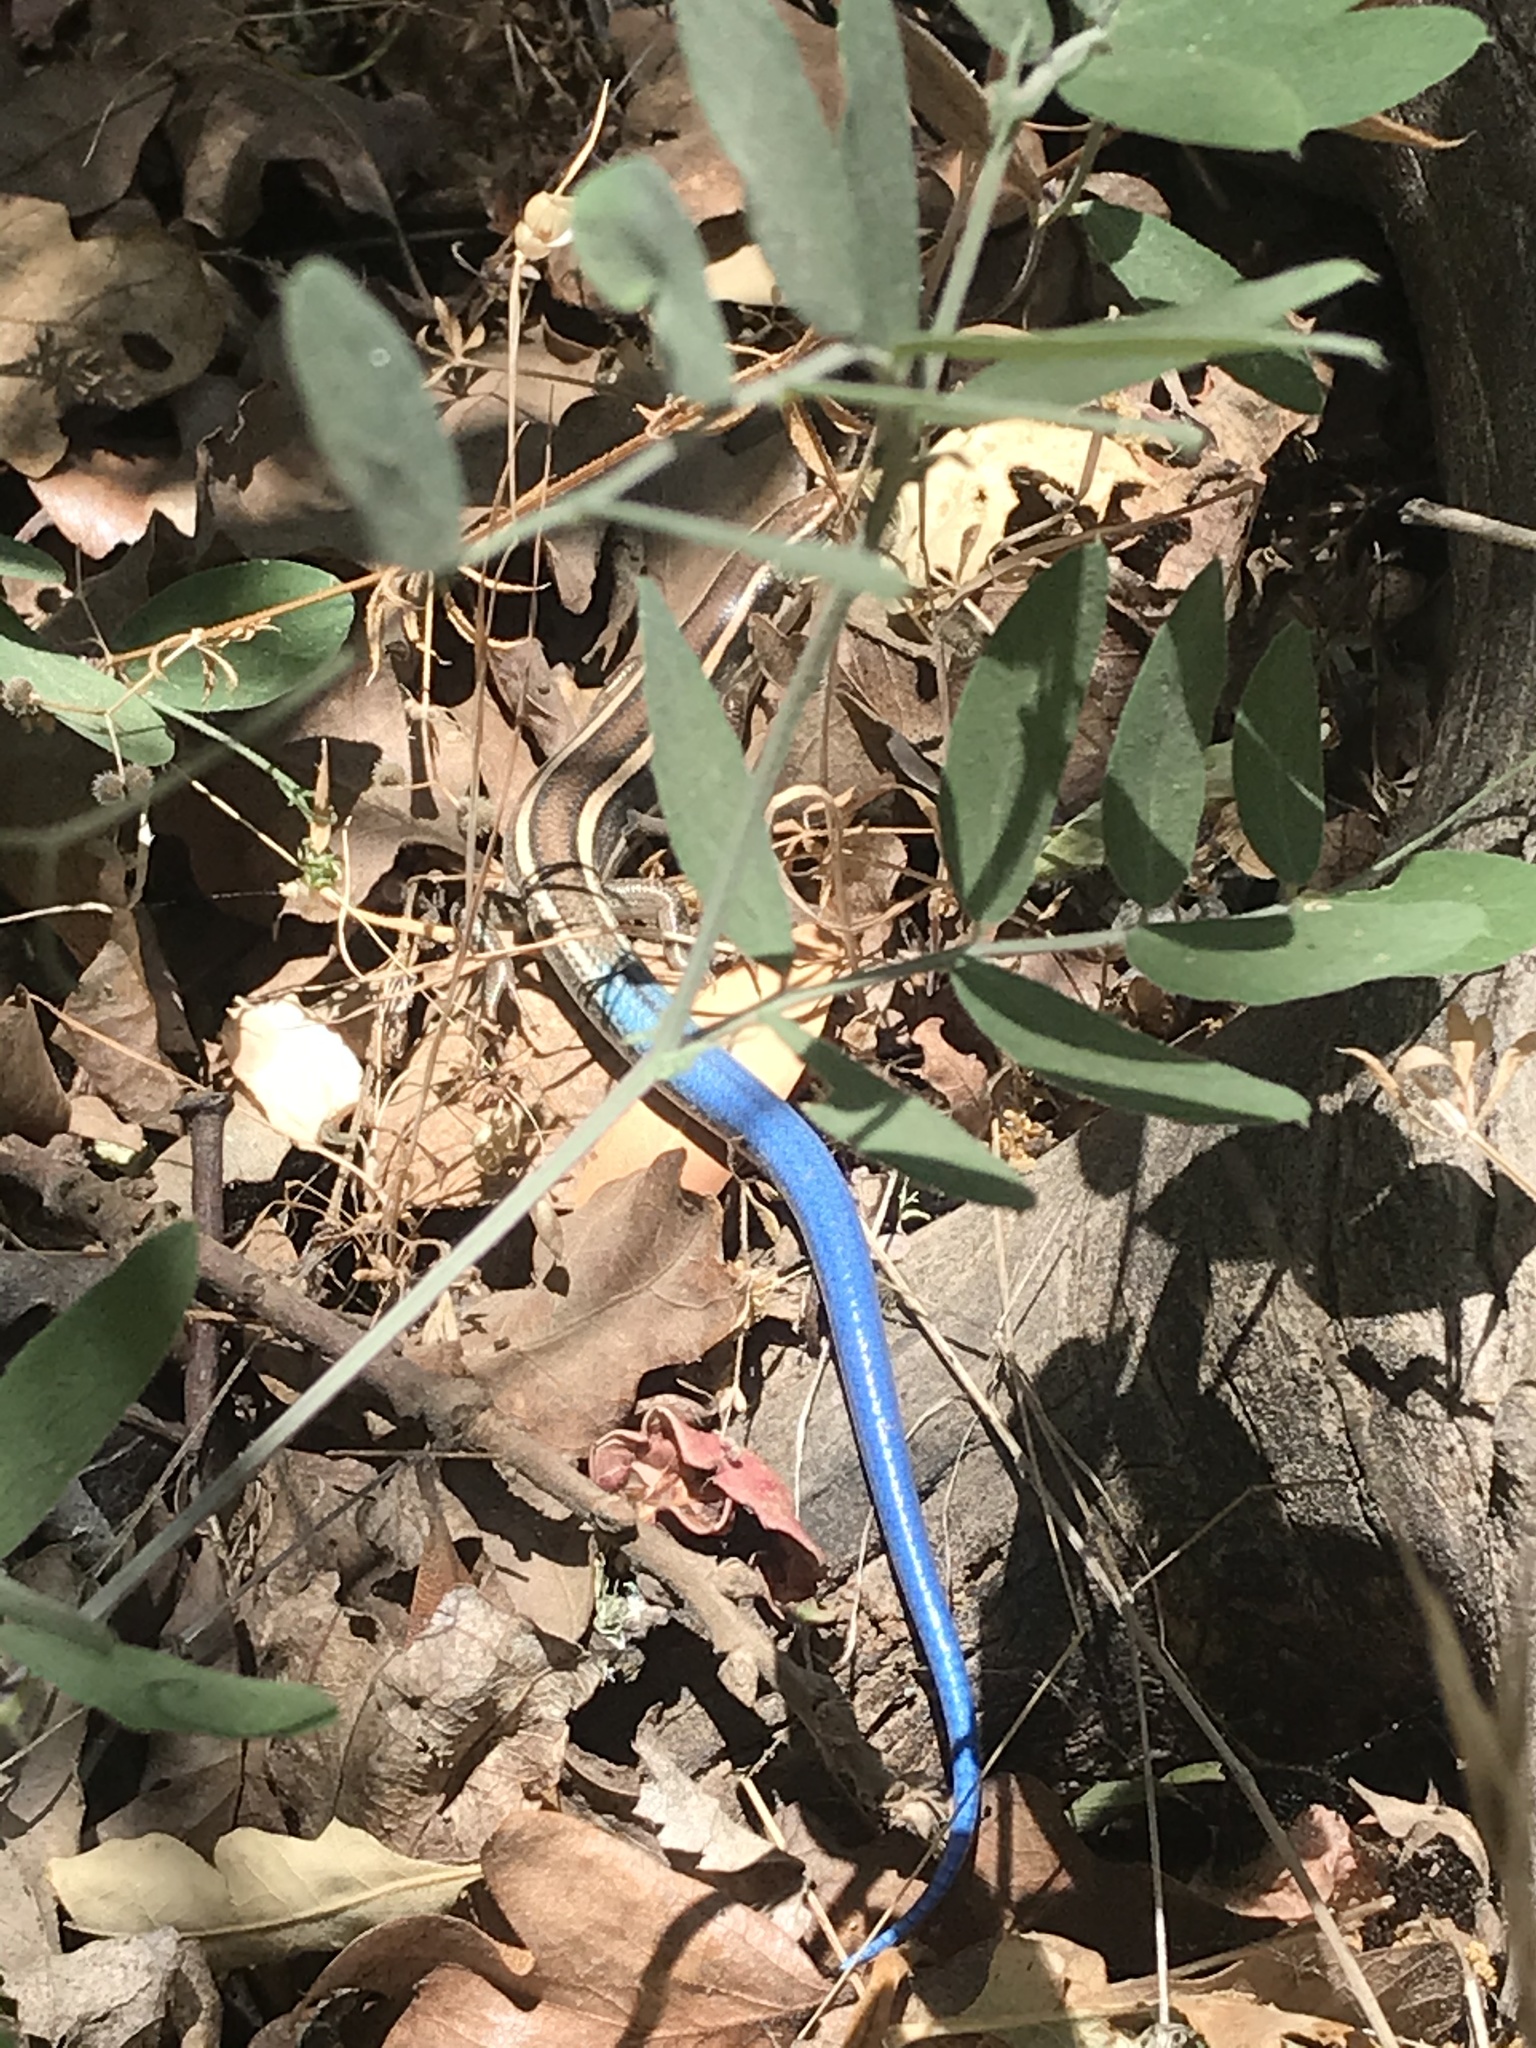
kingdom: Animalia
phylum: Chordata
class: Squamata
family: Scincidae
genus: Plestiodon
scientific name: Plestiodon skiltonianus
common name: Coronado island skink [interparietalis]
